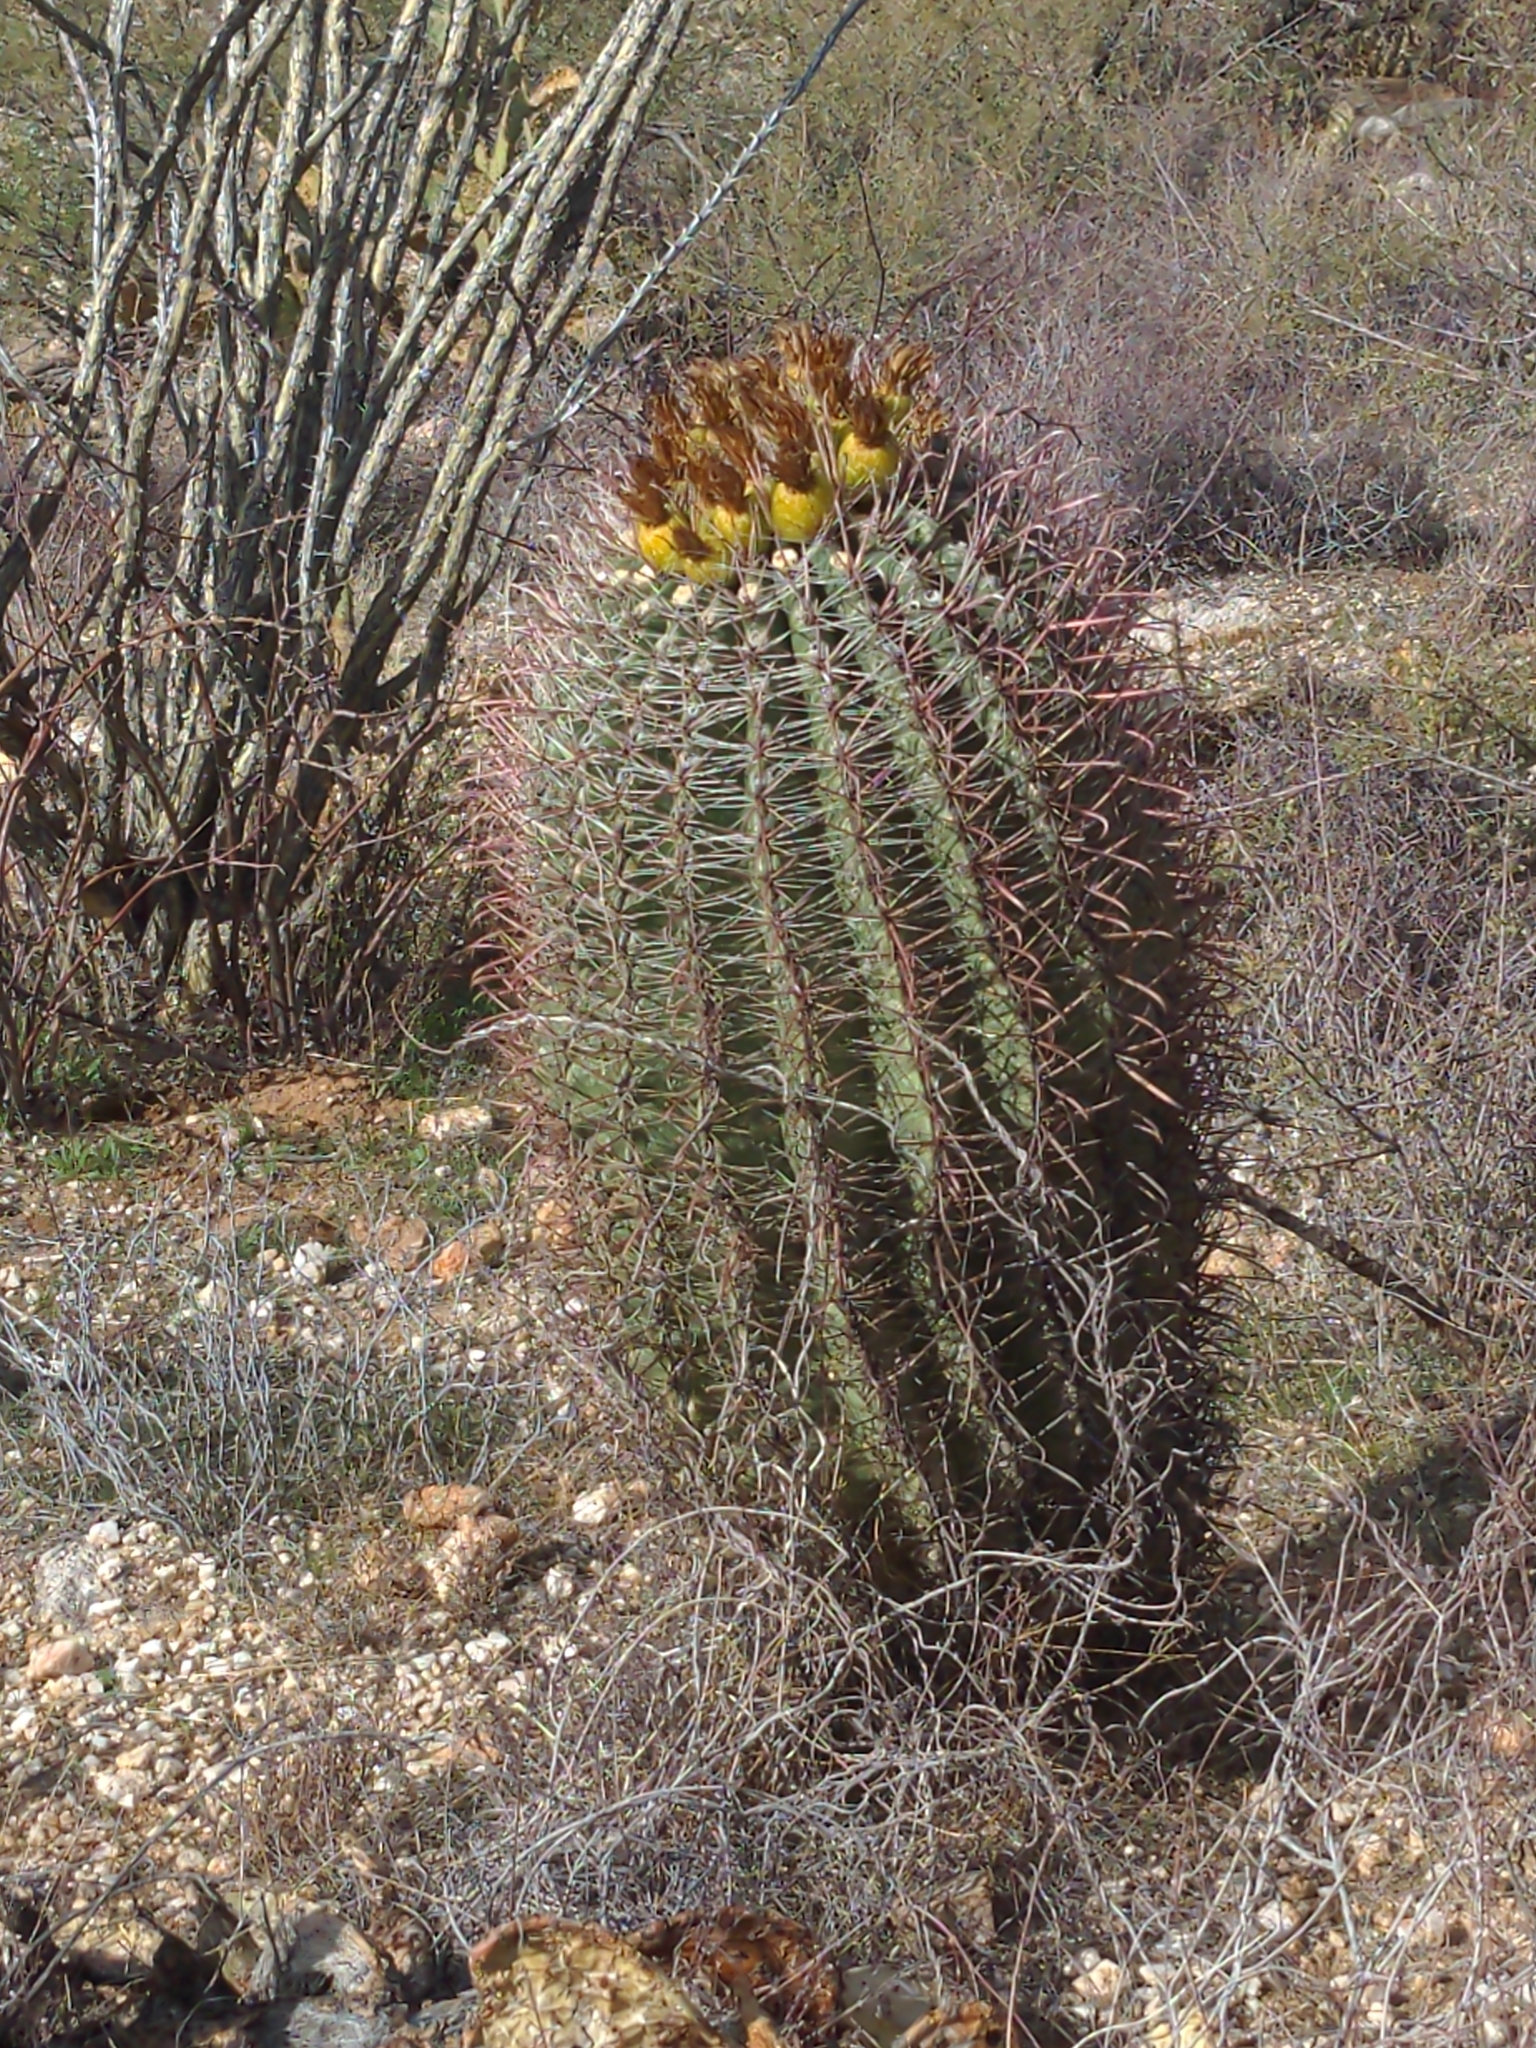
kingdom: Plantae
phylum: Tracheophyta
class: Magnoliopsida
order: Caryophyllales
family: Cactaceae
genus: Ferocactus
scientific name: Ferocactus wislizeni
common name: Candy barrel cactus
